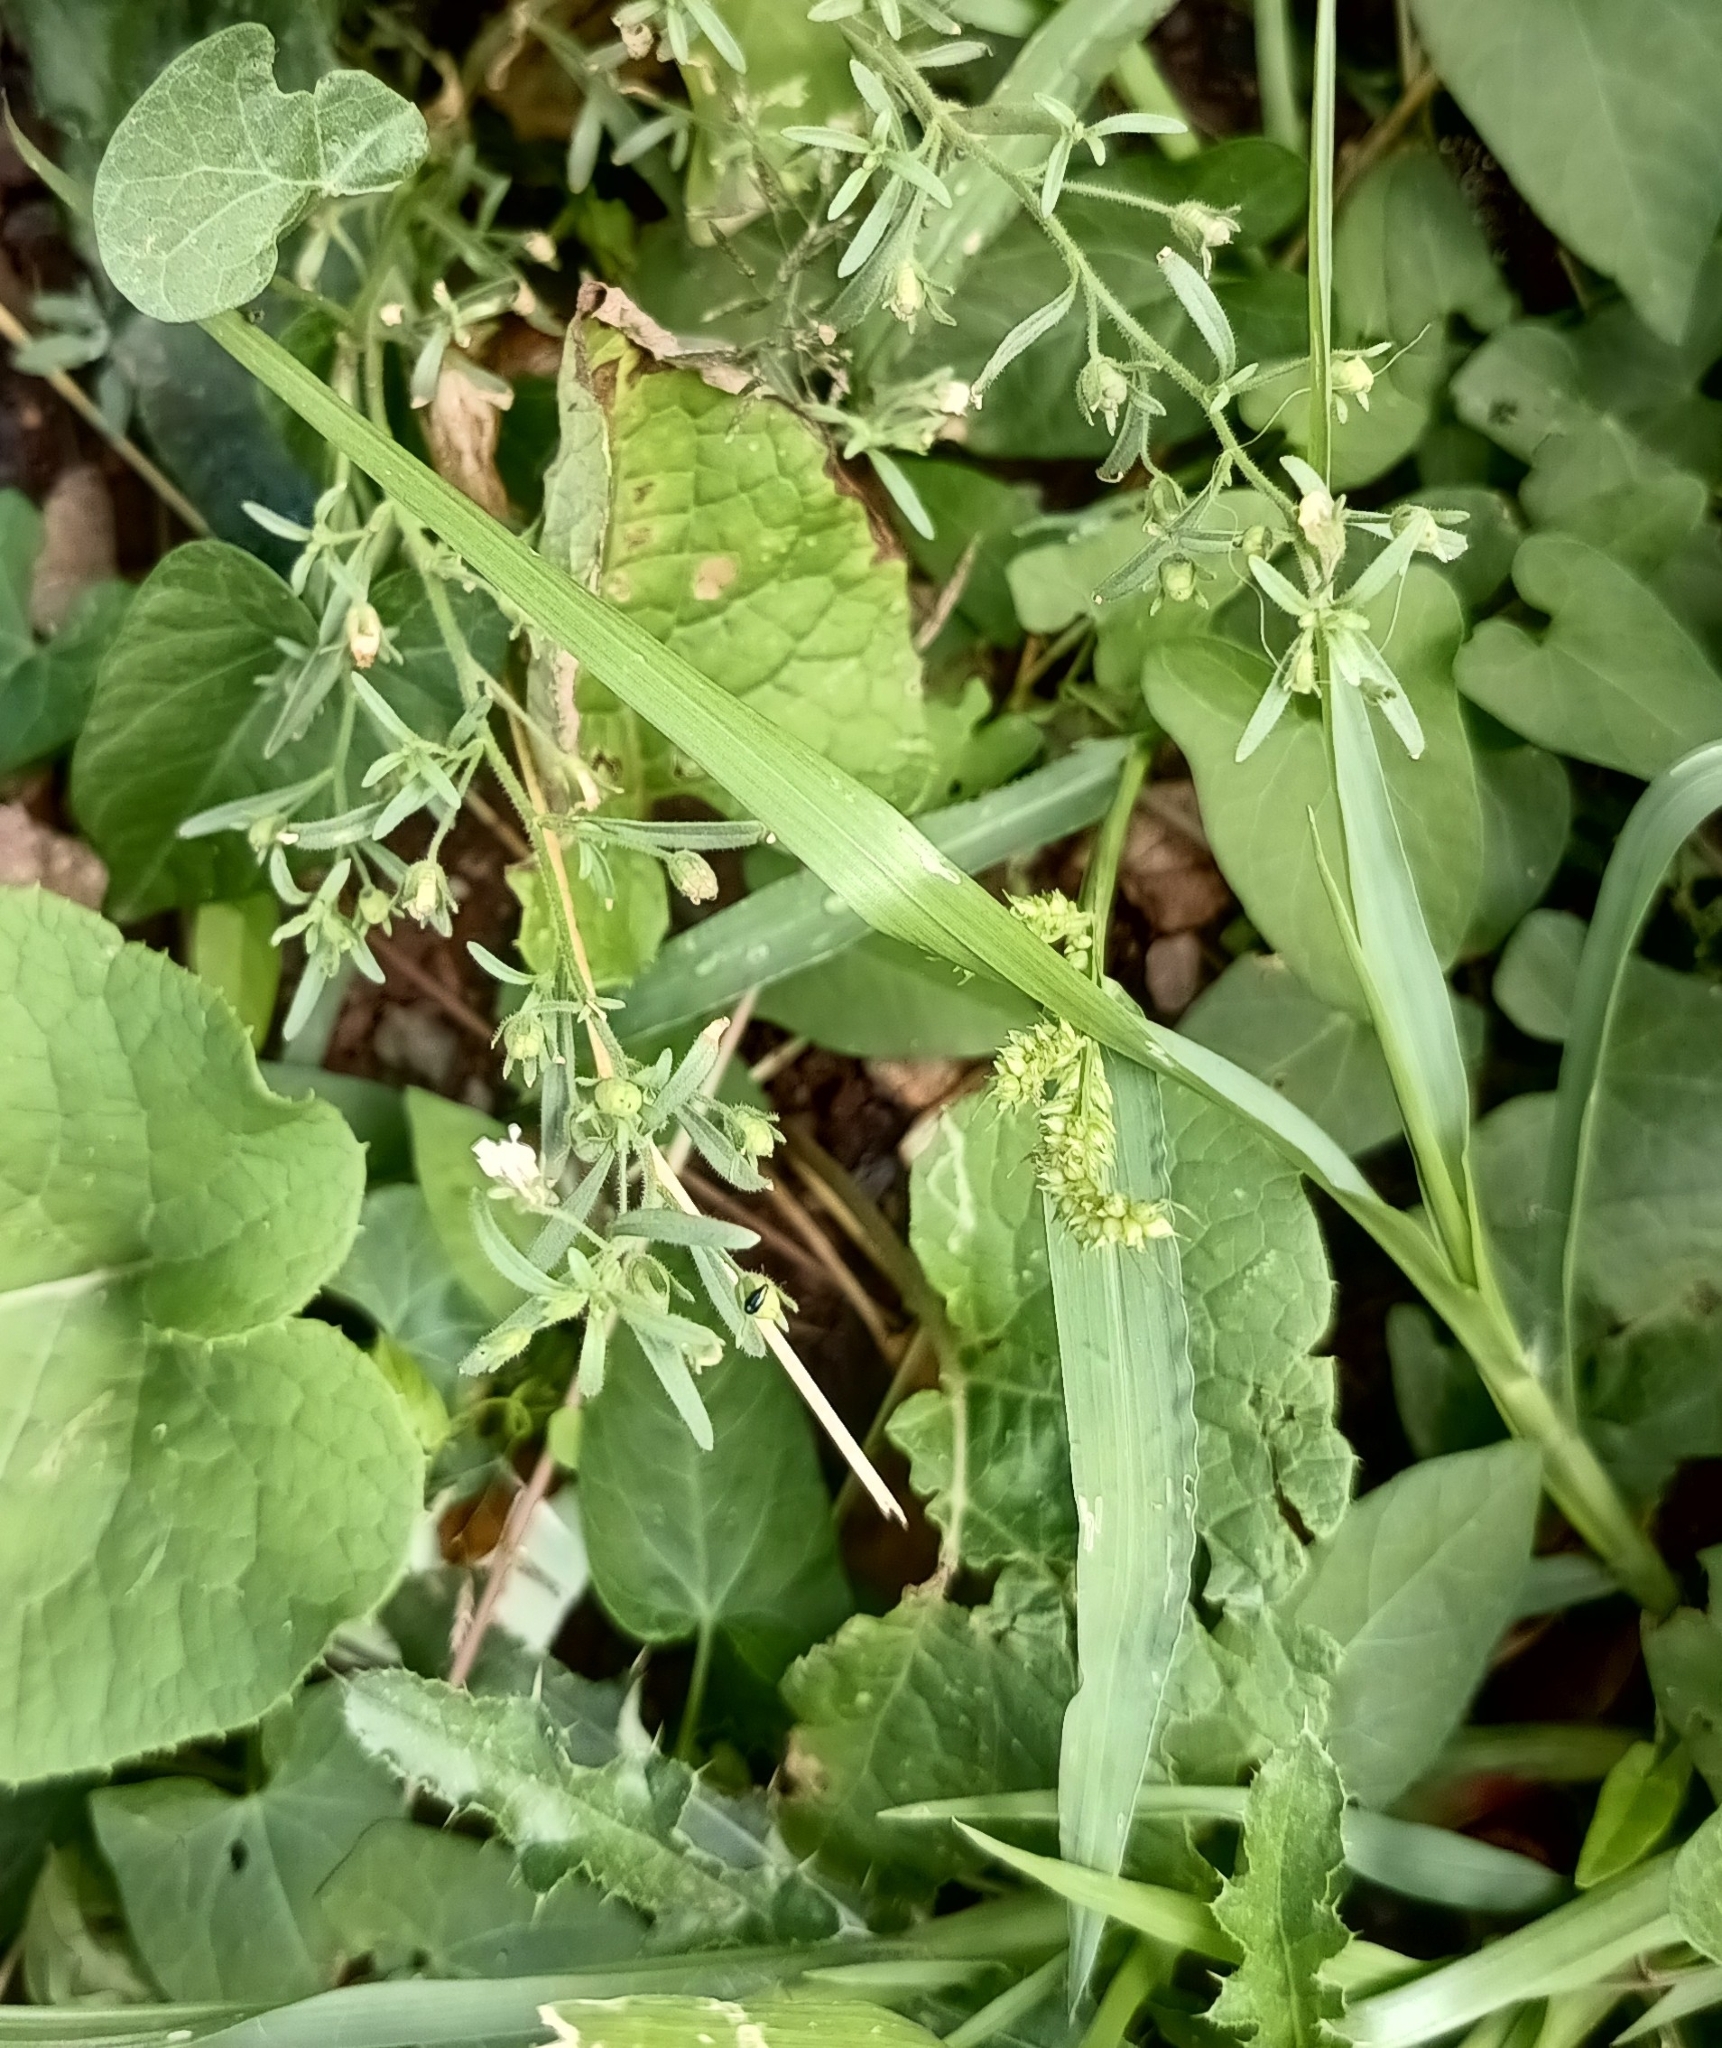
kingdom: Plantae
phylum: Tracheophyta
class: Liliopsida
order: Poales
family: Poaceae
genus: Echinochloa
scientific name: Echinochloa crus-galli
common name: Cockspur
